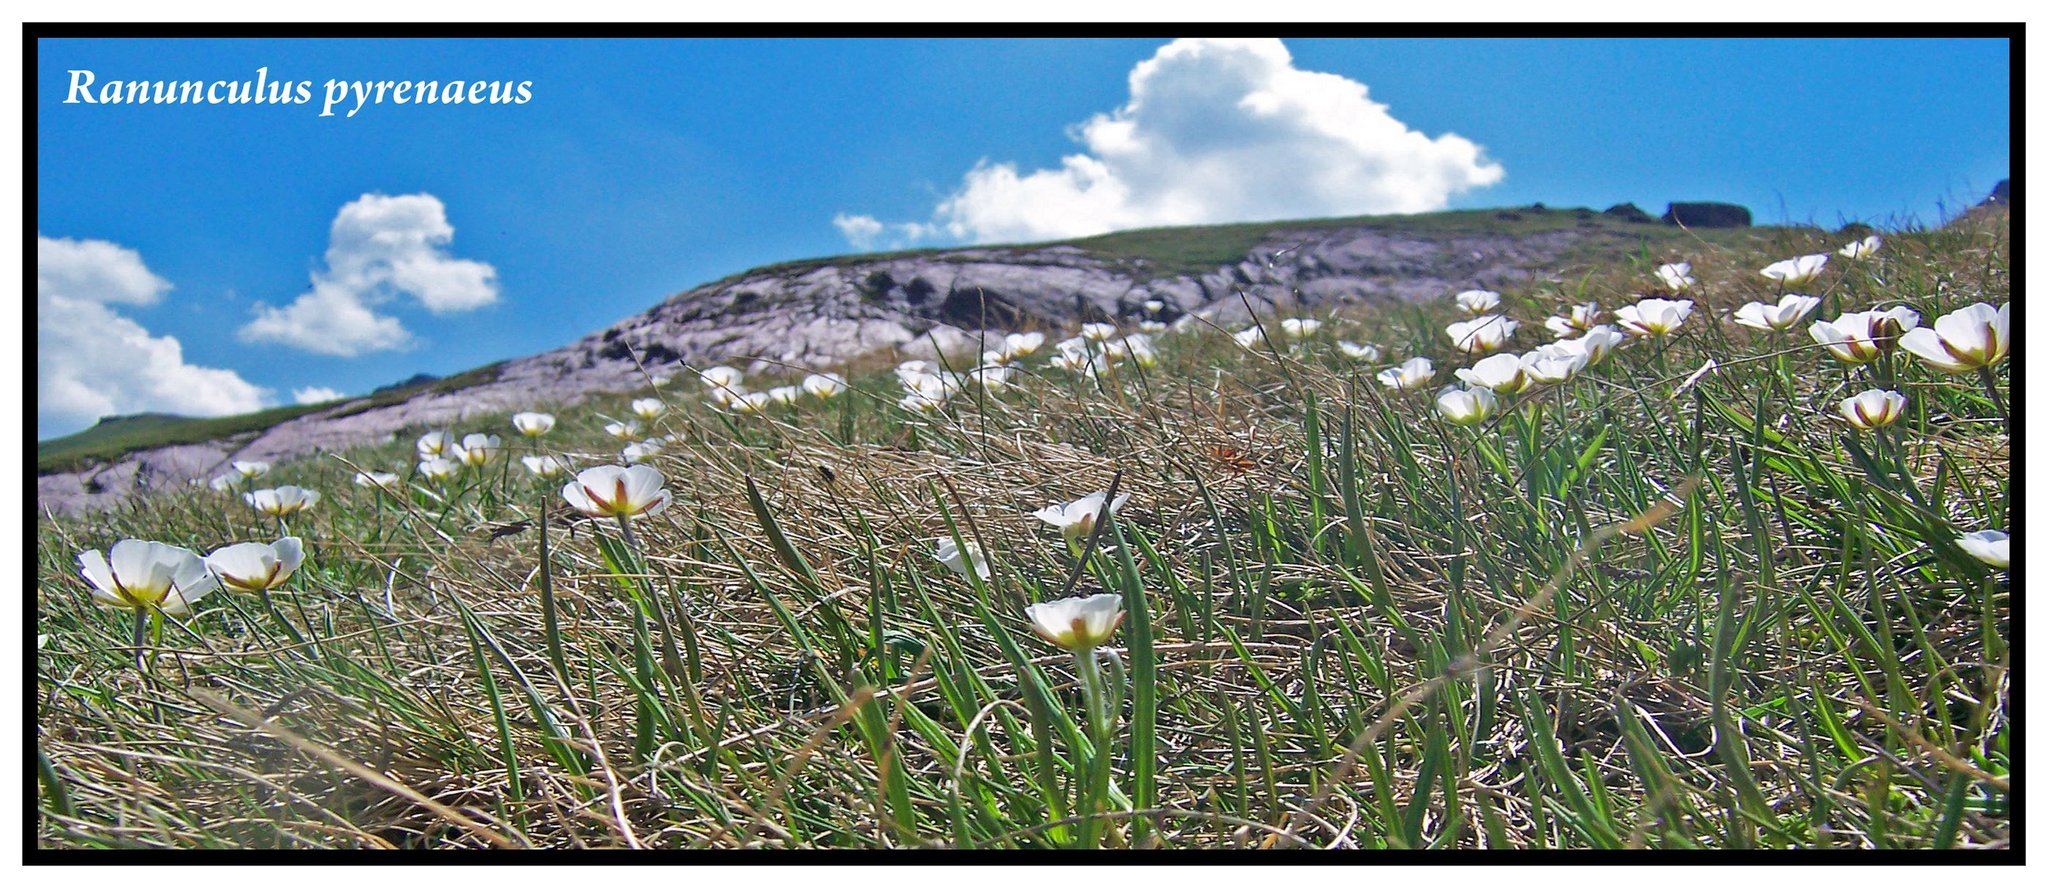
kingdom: Plantae
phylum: Tracheophyta
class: Magnoliopsida
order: Ranunculales
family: Ranunculaceae
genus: Ranunculus
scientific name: Ranunculus pyrenaeus
